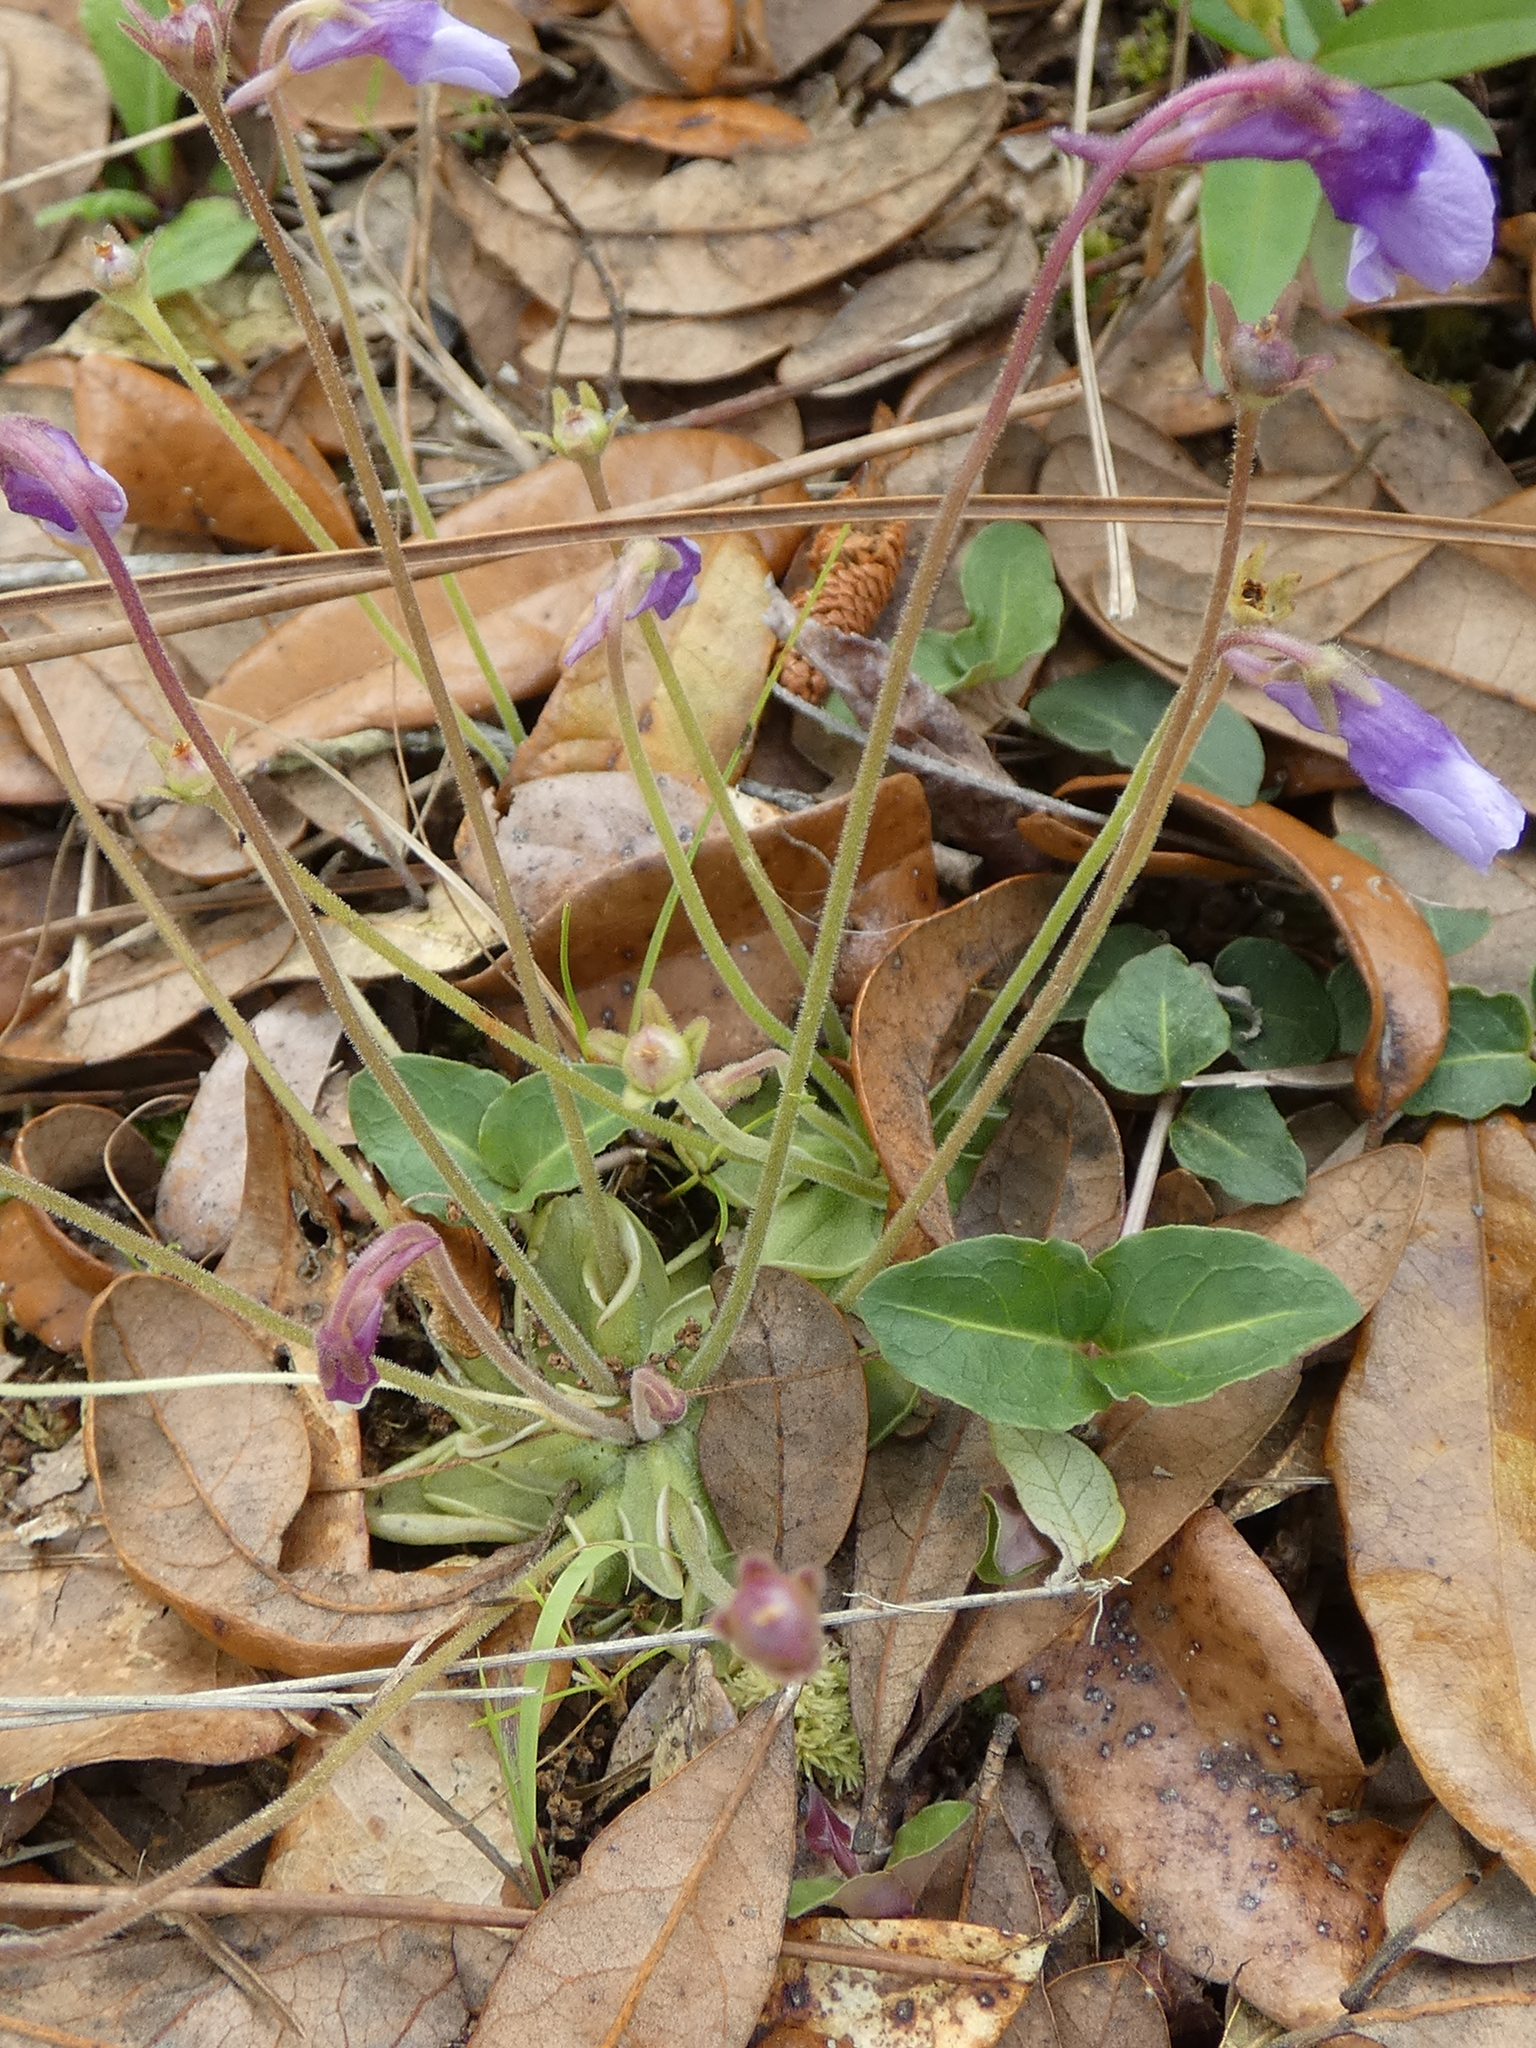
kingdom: Plantae
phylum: Tracheophyta
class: Magnoliopsida
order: Lamiales
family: Lentibulariaceae
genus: Pinguicula
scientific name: Pinguicula pumila
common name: Small butterwort
